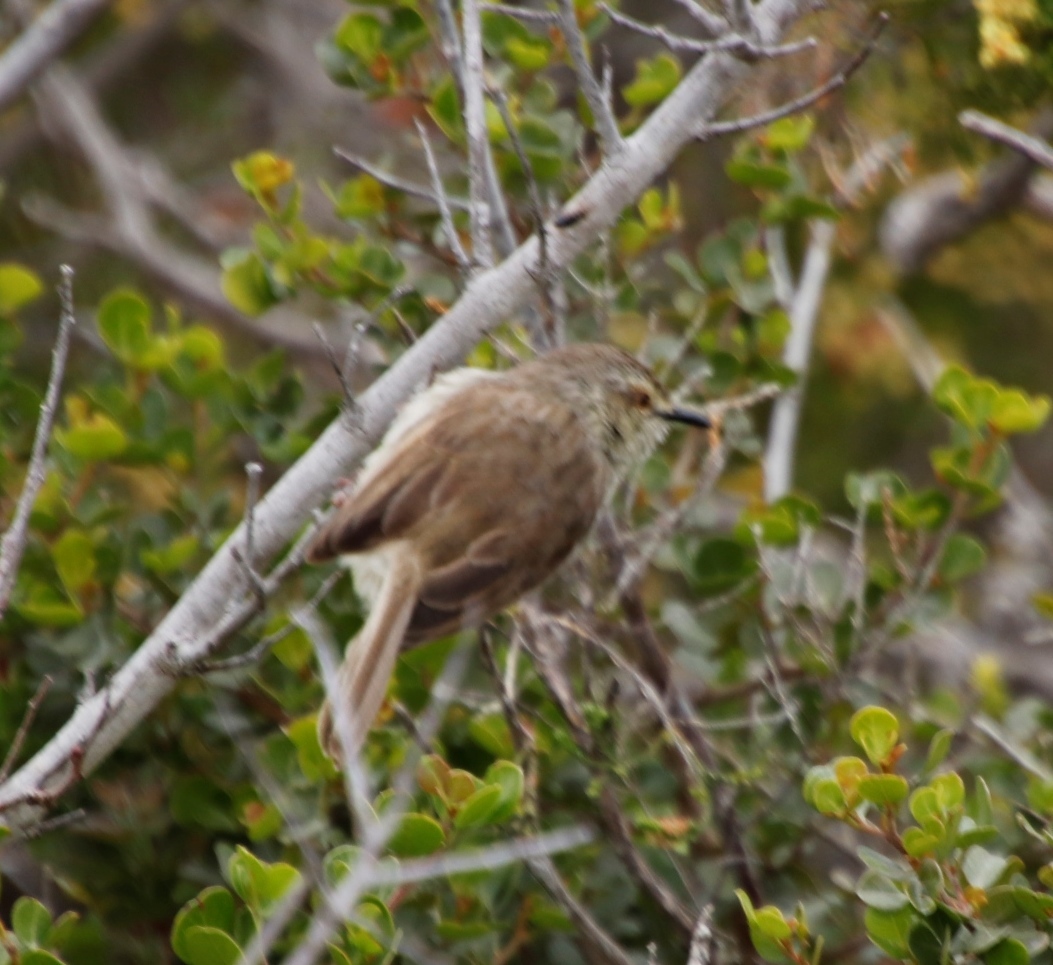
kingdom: Animalia
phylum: Chordata
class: Aves
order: Passeriformes
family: Cisticolidae
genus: Prinia
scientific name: Prinia maculosa
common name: Karoo prinia
